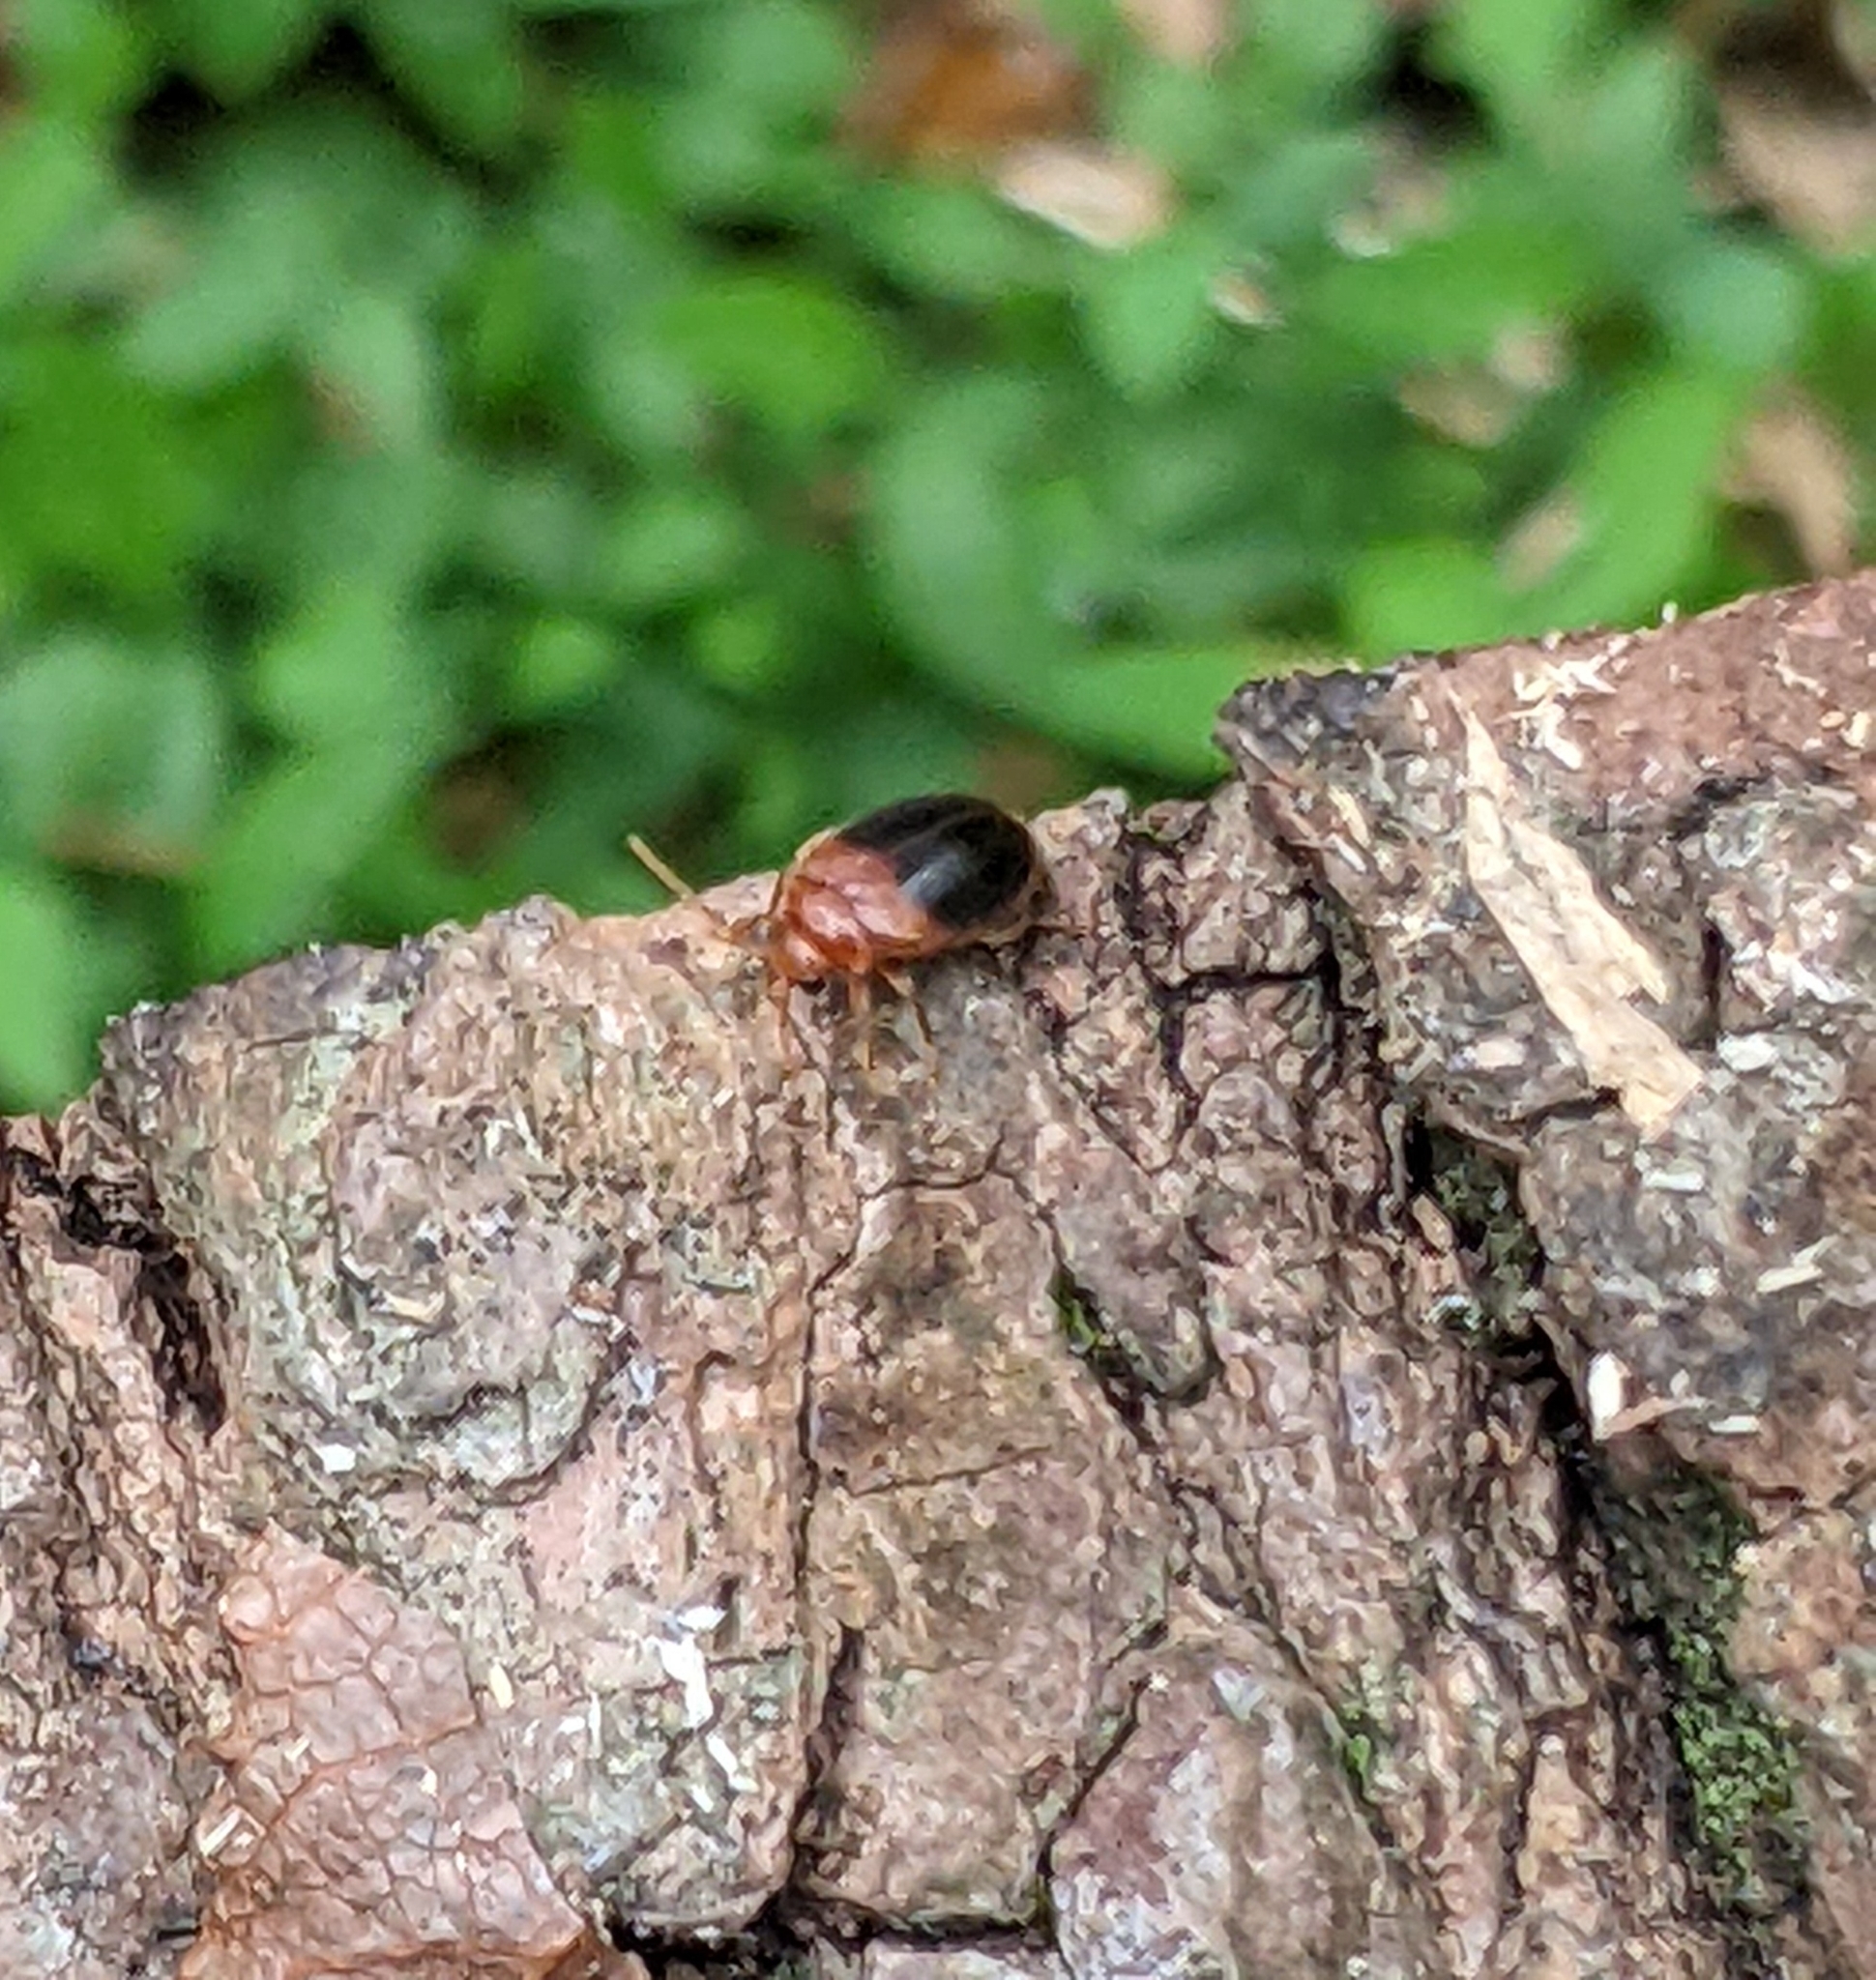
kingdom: Animalia
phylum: Arthropoda
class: Insecta
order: Coleoptera
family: Scirtidae
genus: Prionocyphon
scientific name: Prionocyphon discoideus
